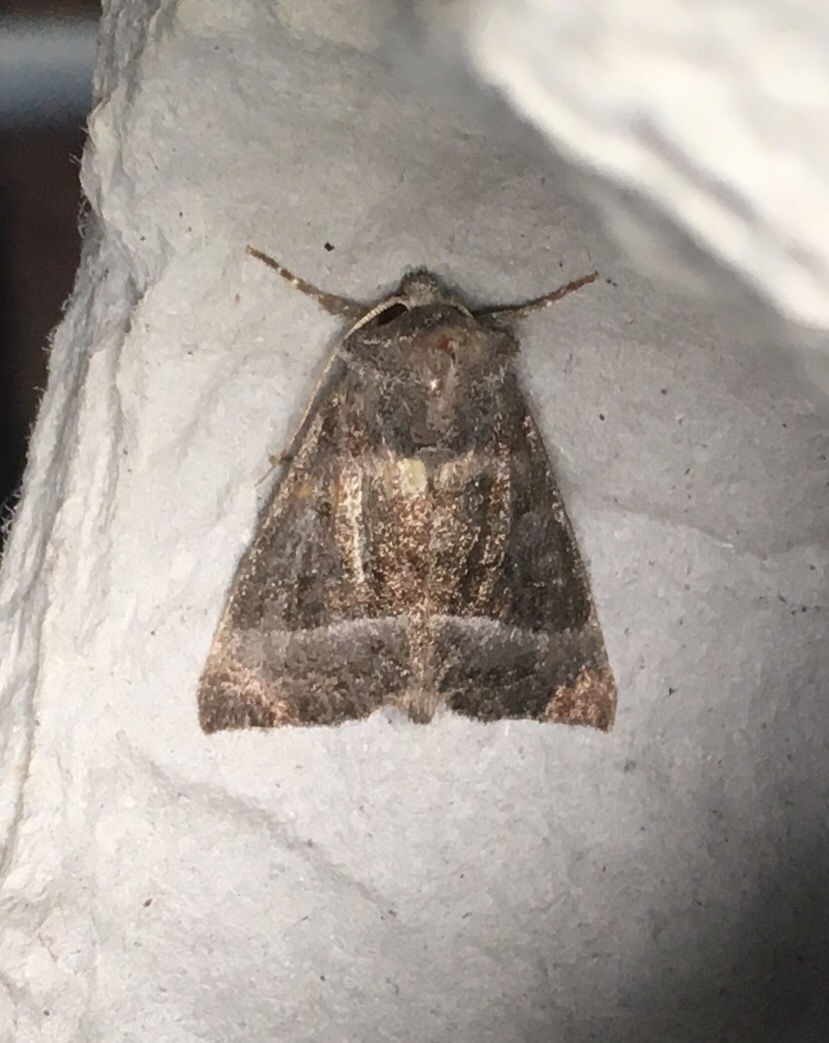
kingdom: Animalia
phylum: Arthropoda
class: Insecta
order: Lepidoptera
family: Noctuidae
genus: Papaipema
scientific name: Papaipema eupatorii
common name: Eupatorium borer moth
